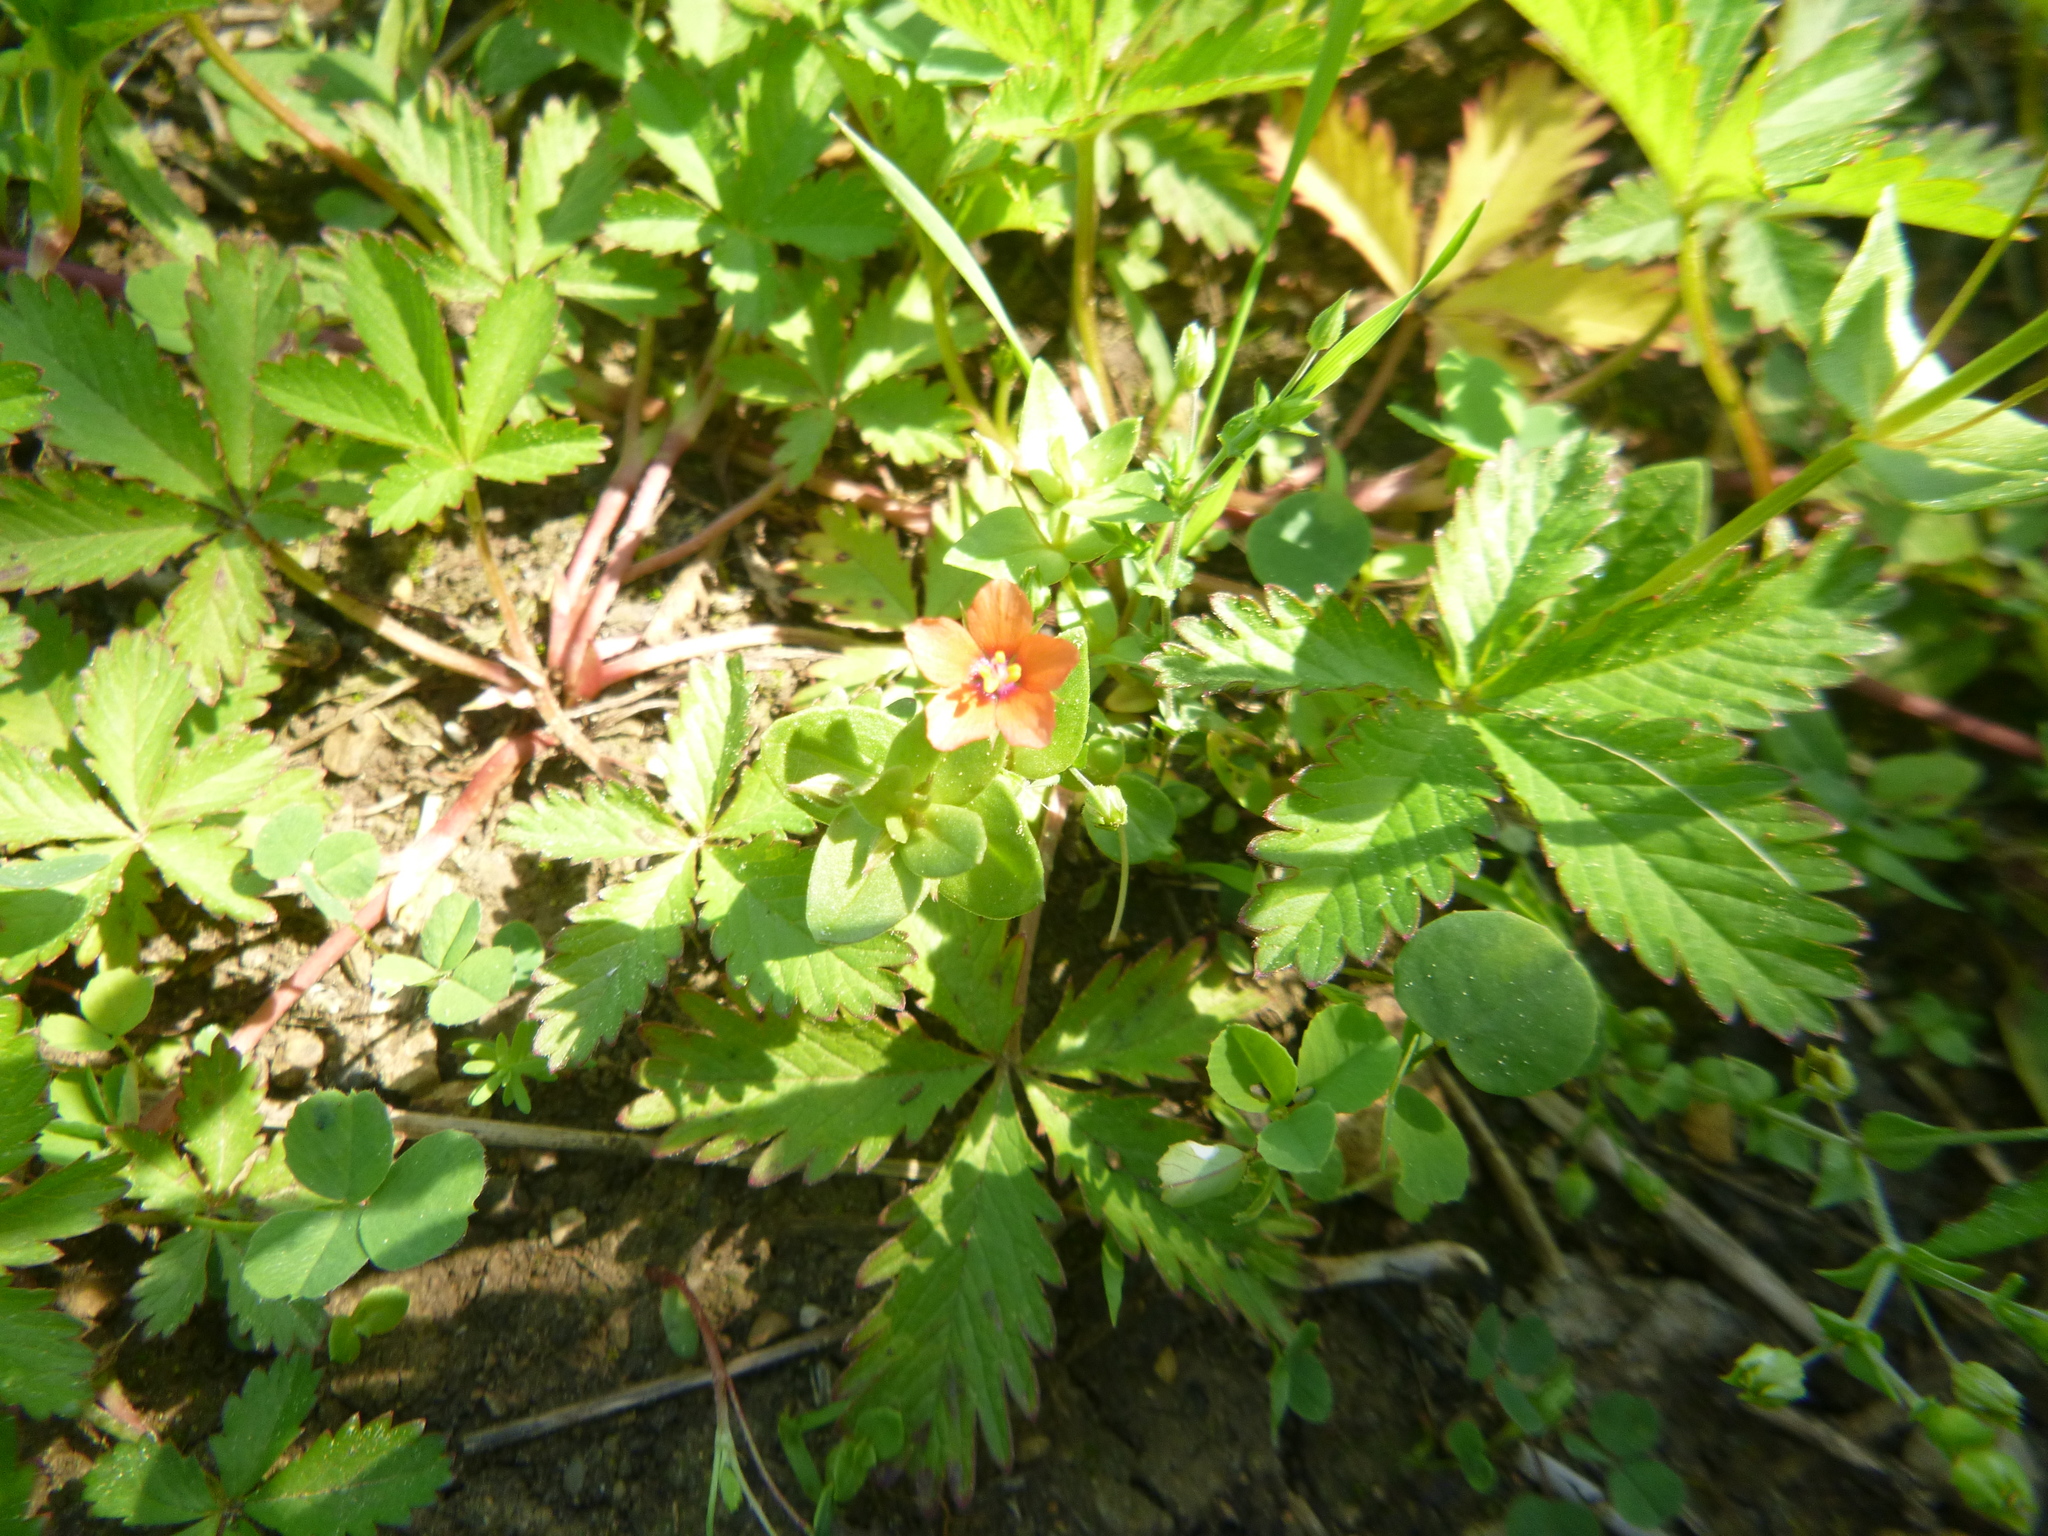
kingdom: Plantae
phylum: Tracheophyta
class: Magnoliopsida
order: Rosales
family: Rosaceae
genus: Potentilla
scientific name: Potentilla reptans
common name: Creeping cinquefoil
